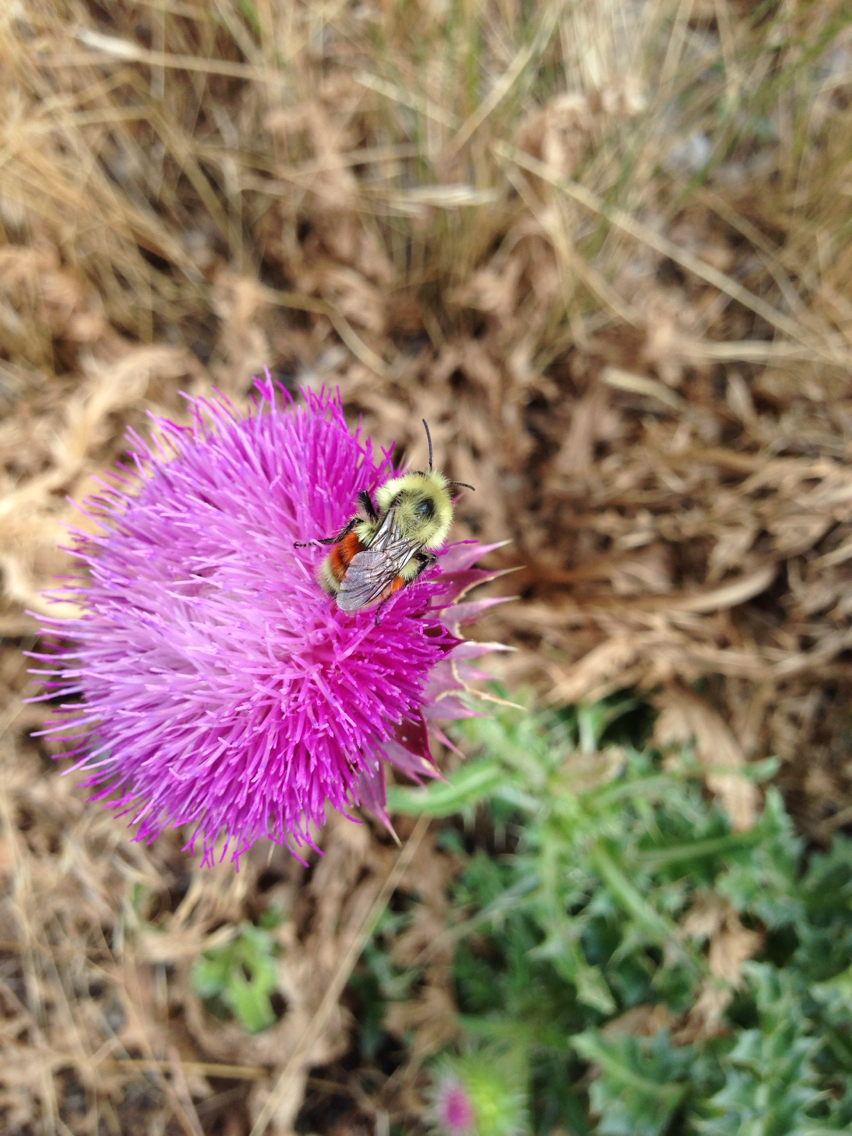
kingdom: Animalia
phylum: Arthropoda
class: Insecta
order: Hymenoptera
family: Apidae
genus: Bombus
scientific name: Bombus huntii
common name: Hunt bumble bee
